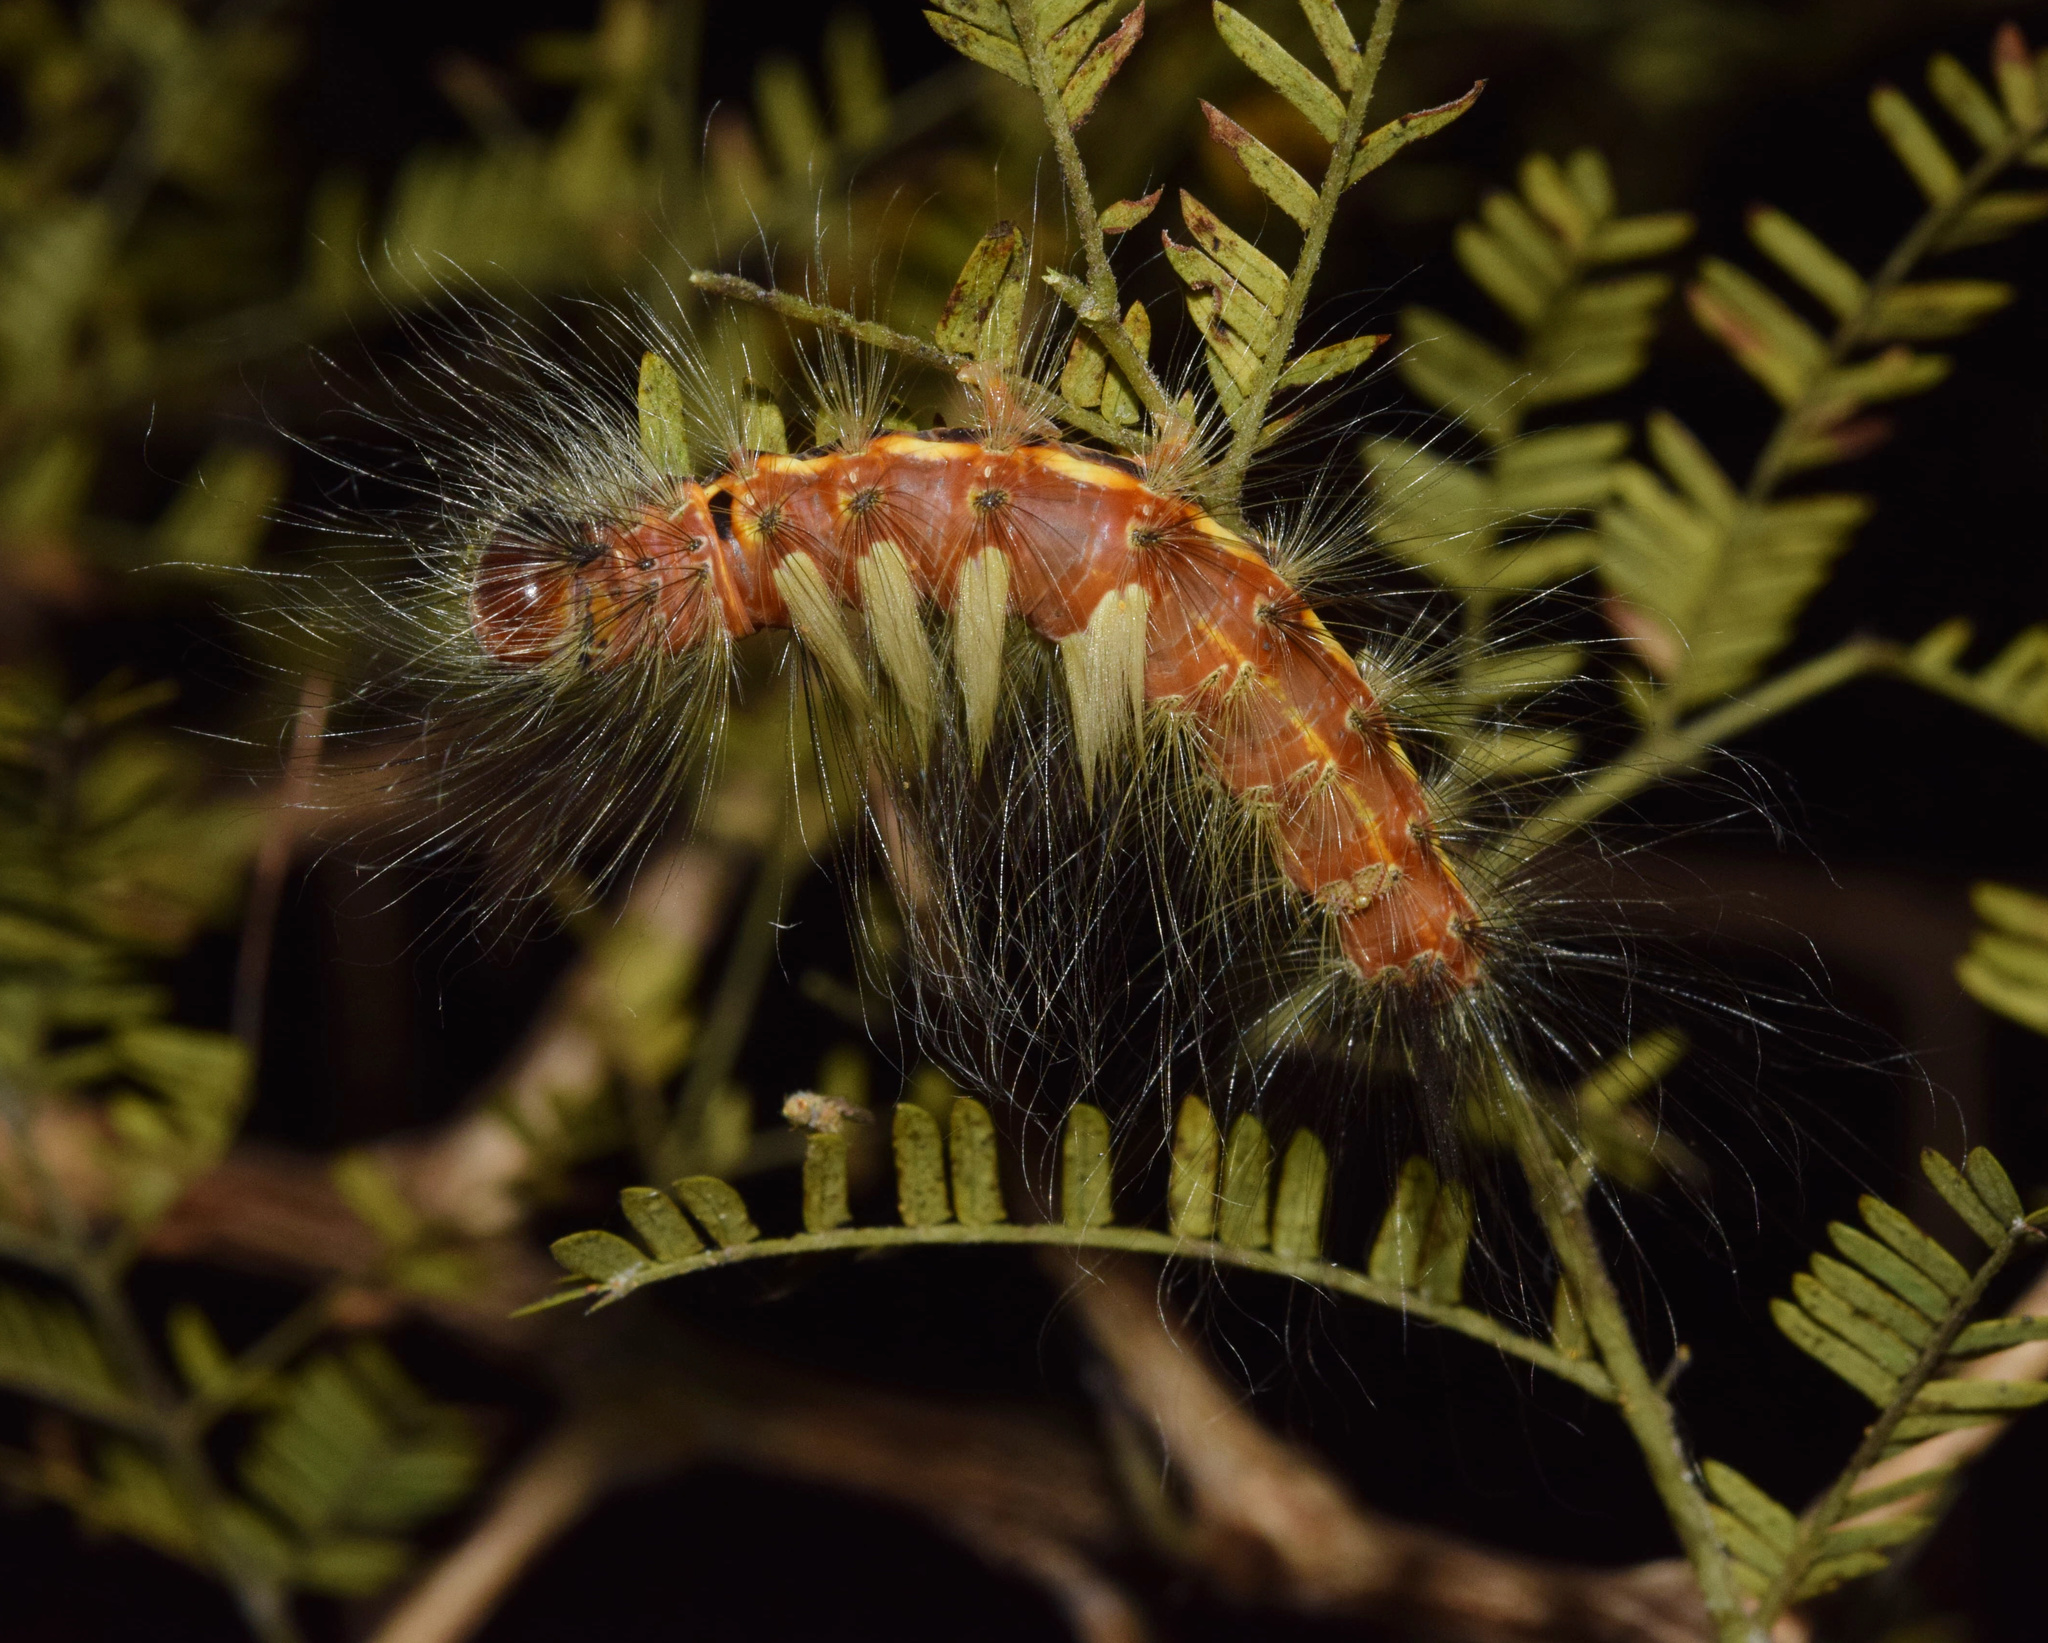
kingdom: Animalia
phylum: Arthropoda
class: Insecta
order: Lepidoptera
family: Erebidae
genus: Dasychira
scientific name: Dasychira georgiana
